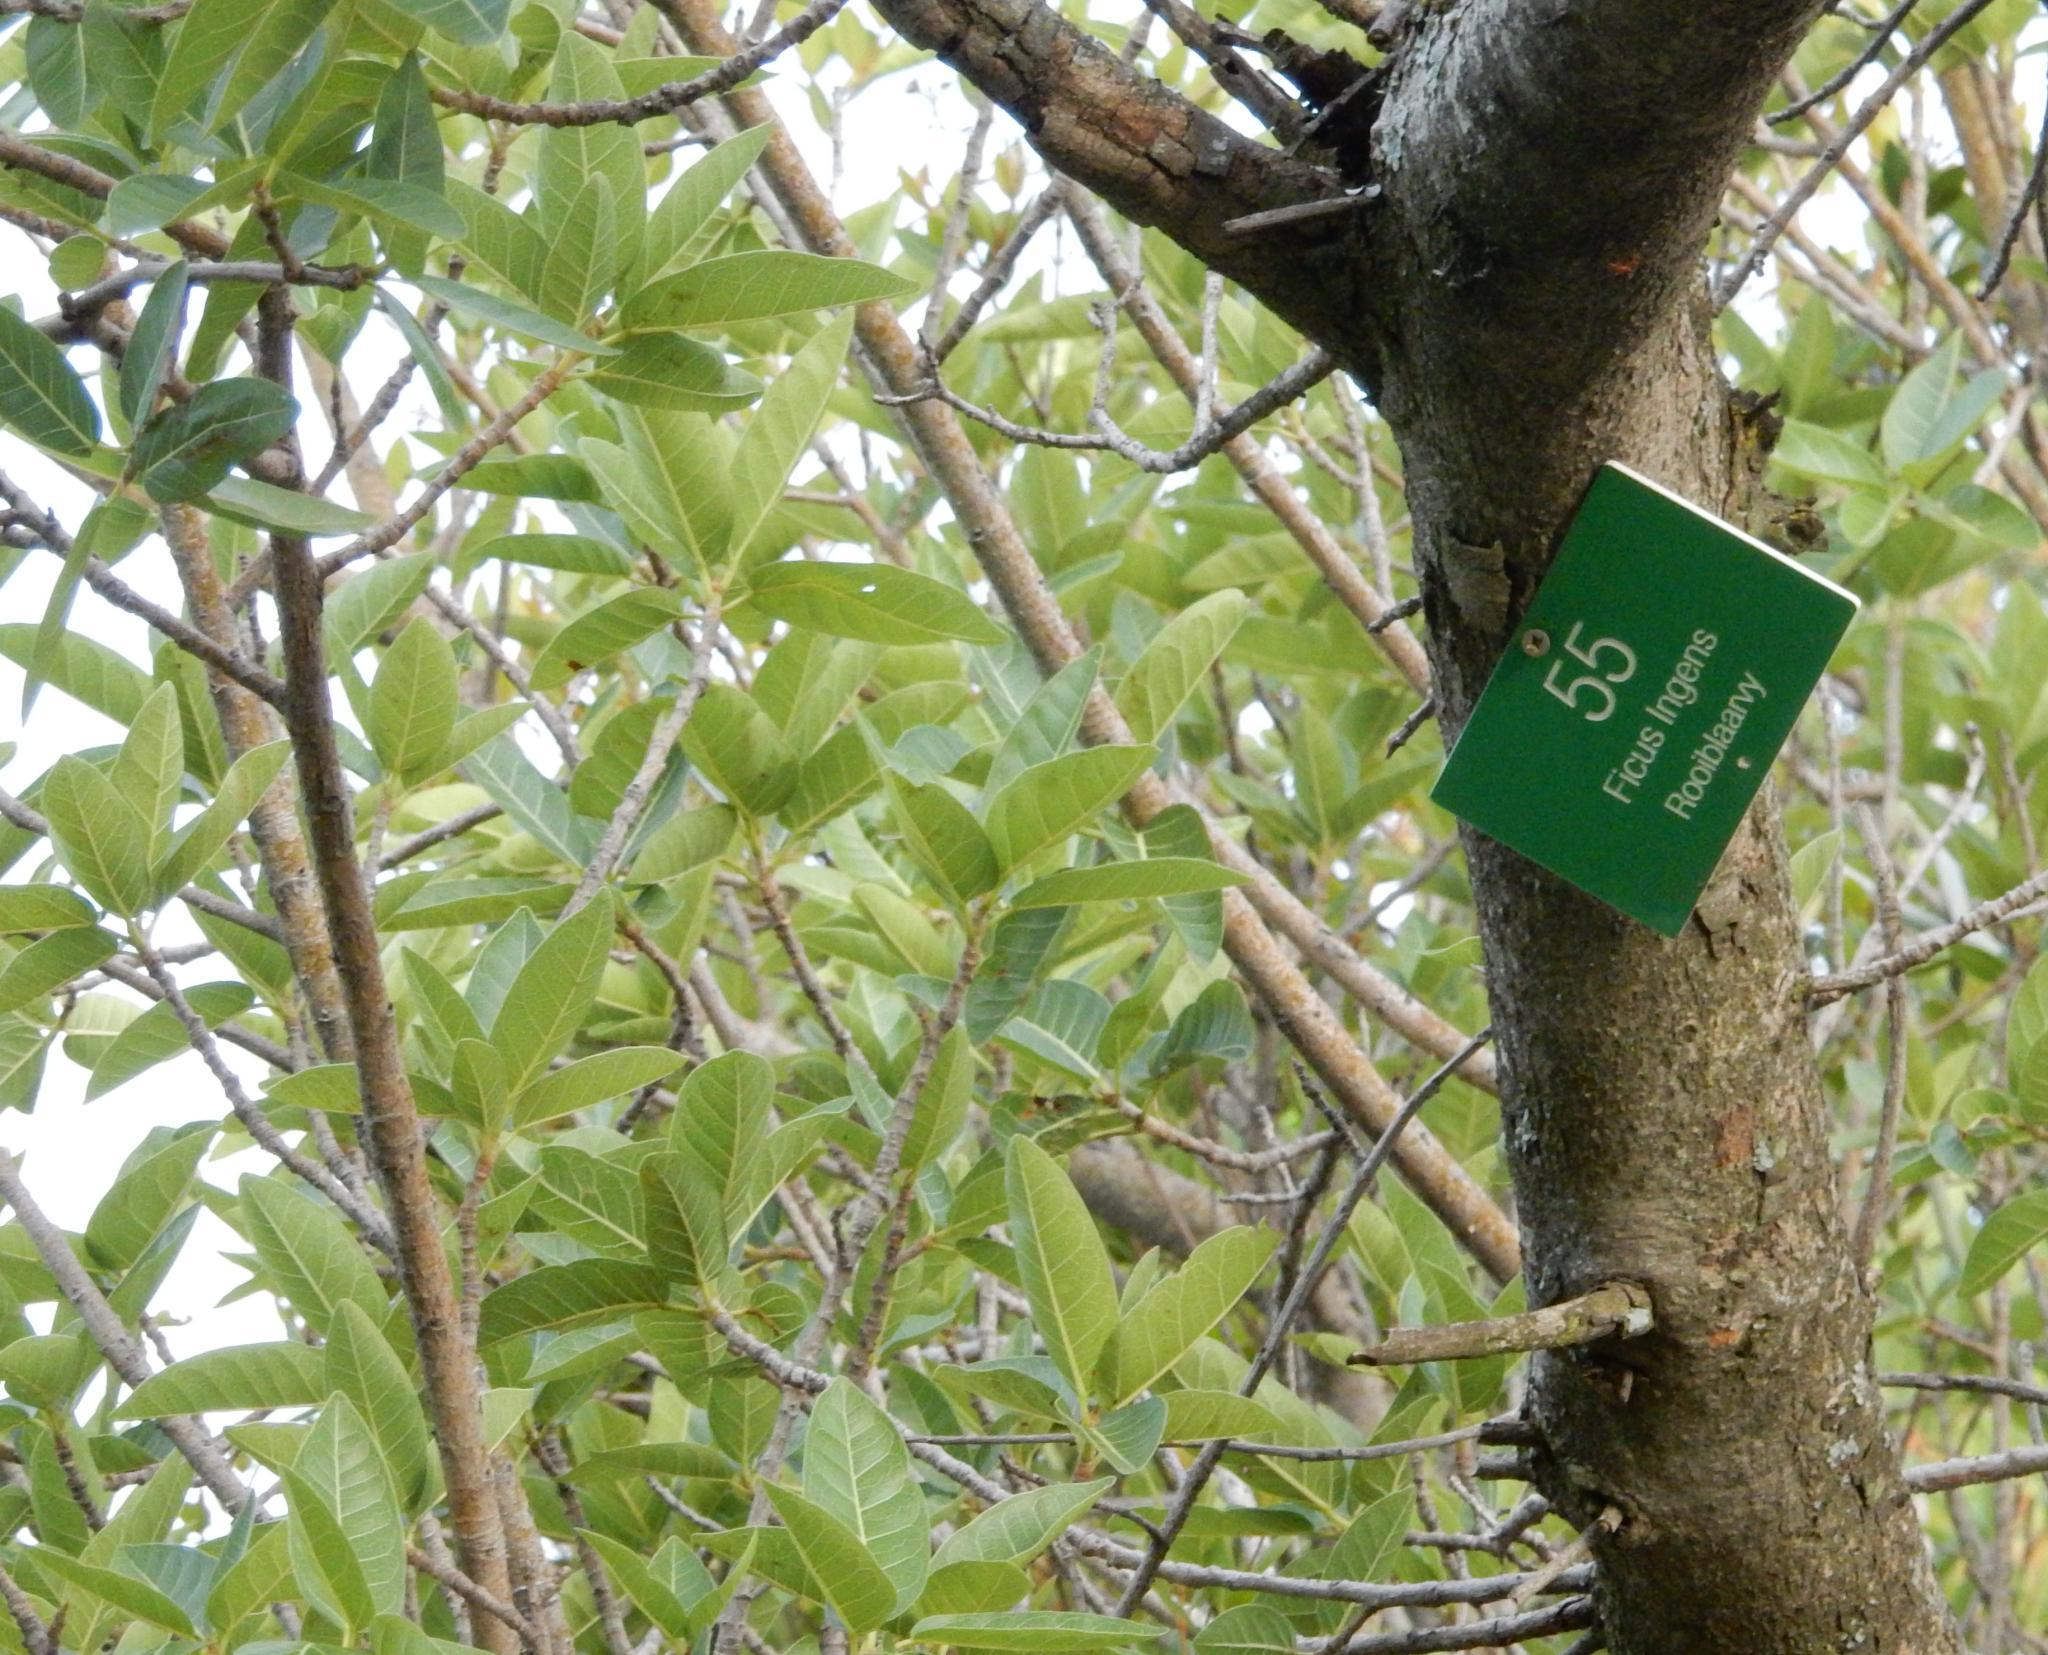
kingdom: Plantae
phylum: Tracheophyta
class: Magnoliopsida
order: Rosales
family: Moraceae
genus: Ficus
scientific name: Ficus ingens
